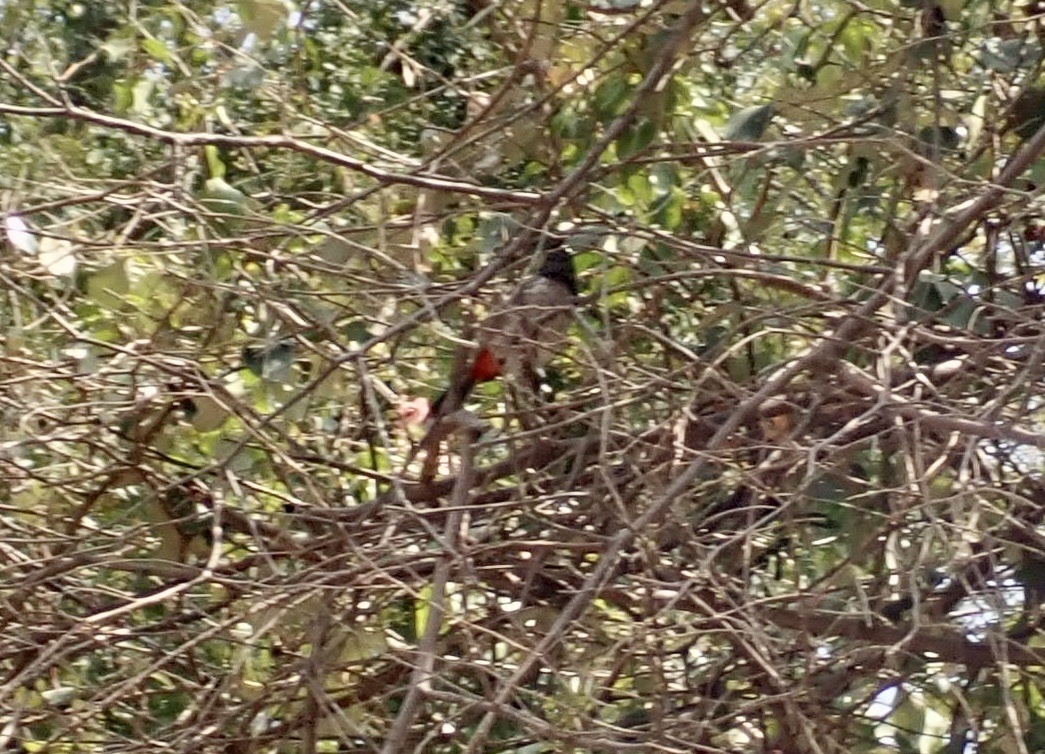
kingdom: Animalia
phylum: Chordata
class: Aves
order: Passeriformes
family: Pycnonotidae
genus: Pycnonotus
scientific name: Pycnonotus cafer
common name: Red-vented bulbul
